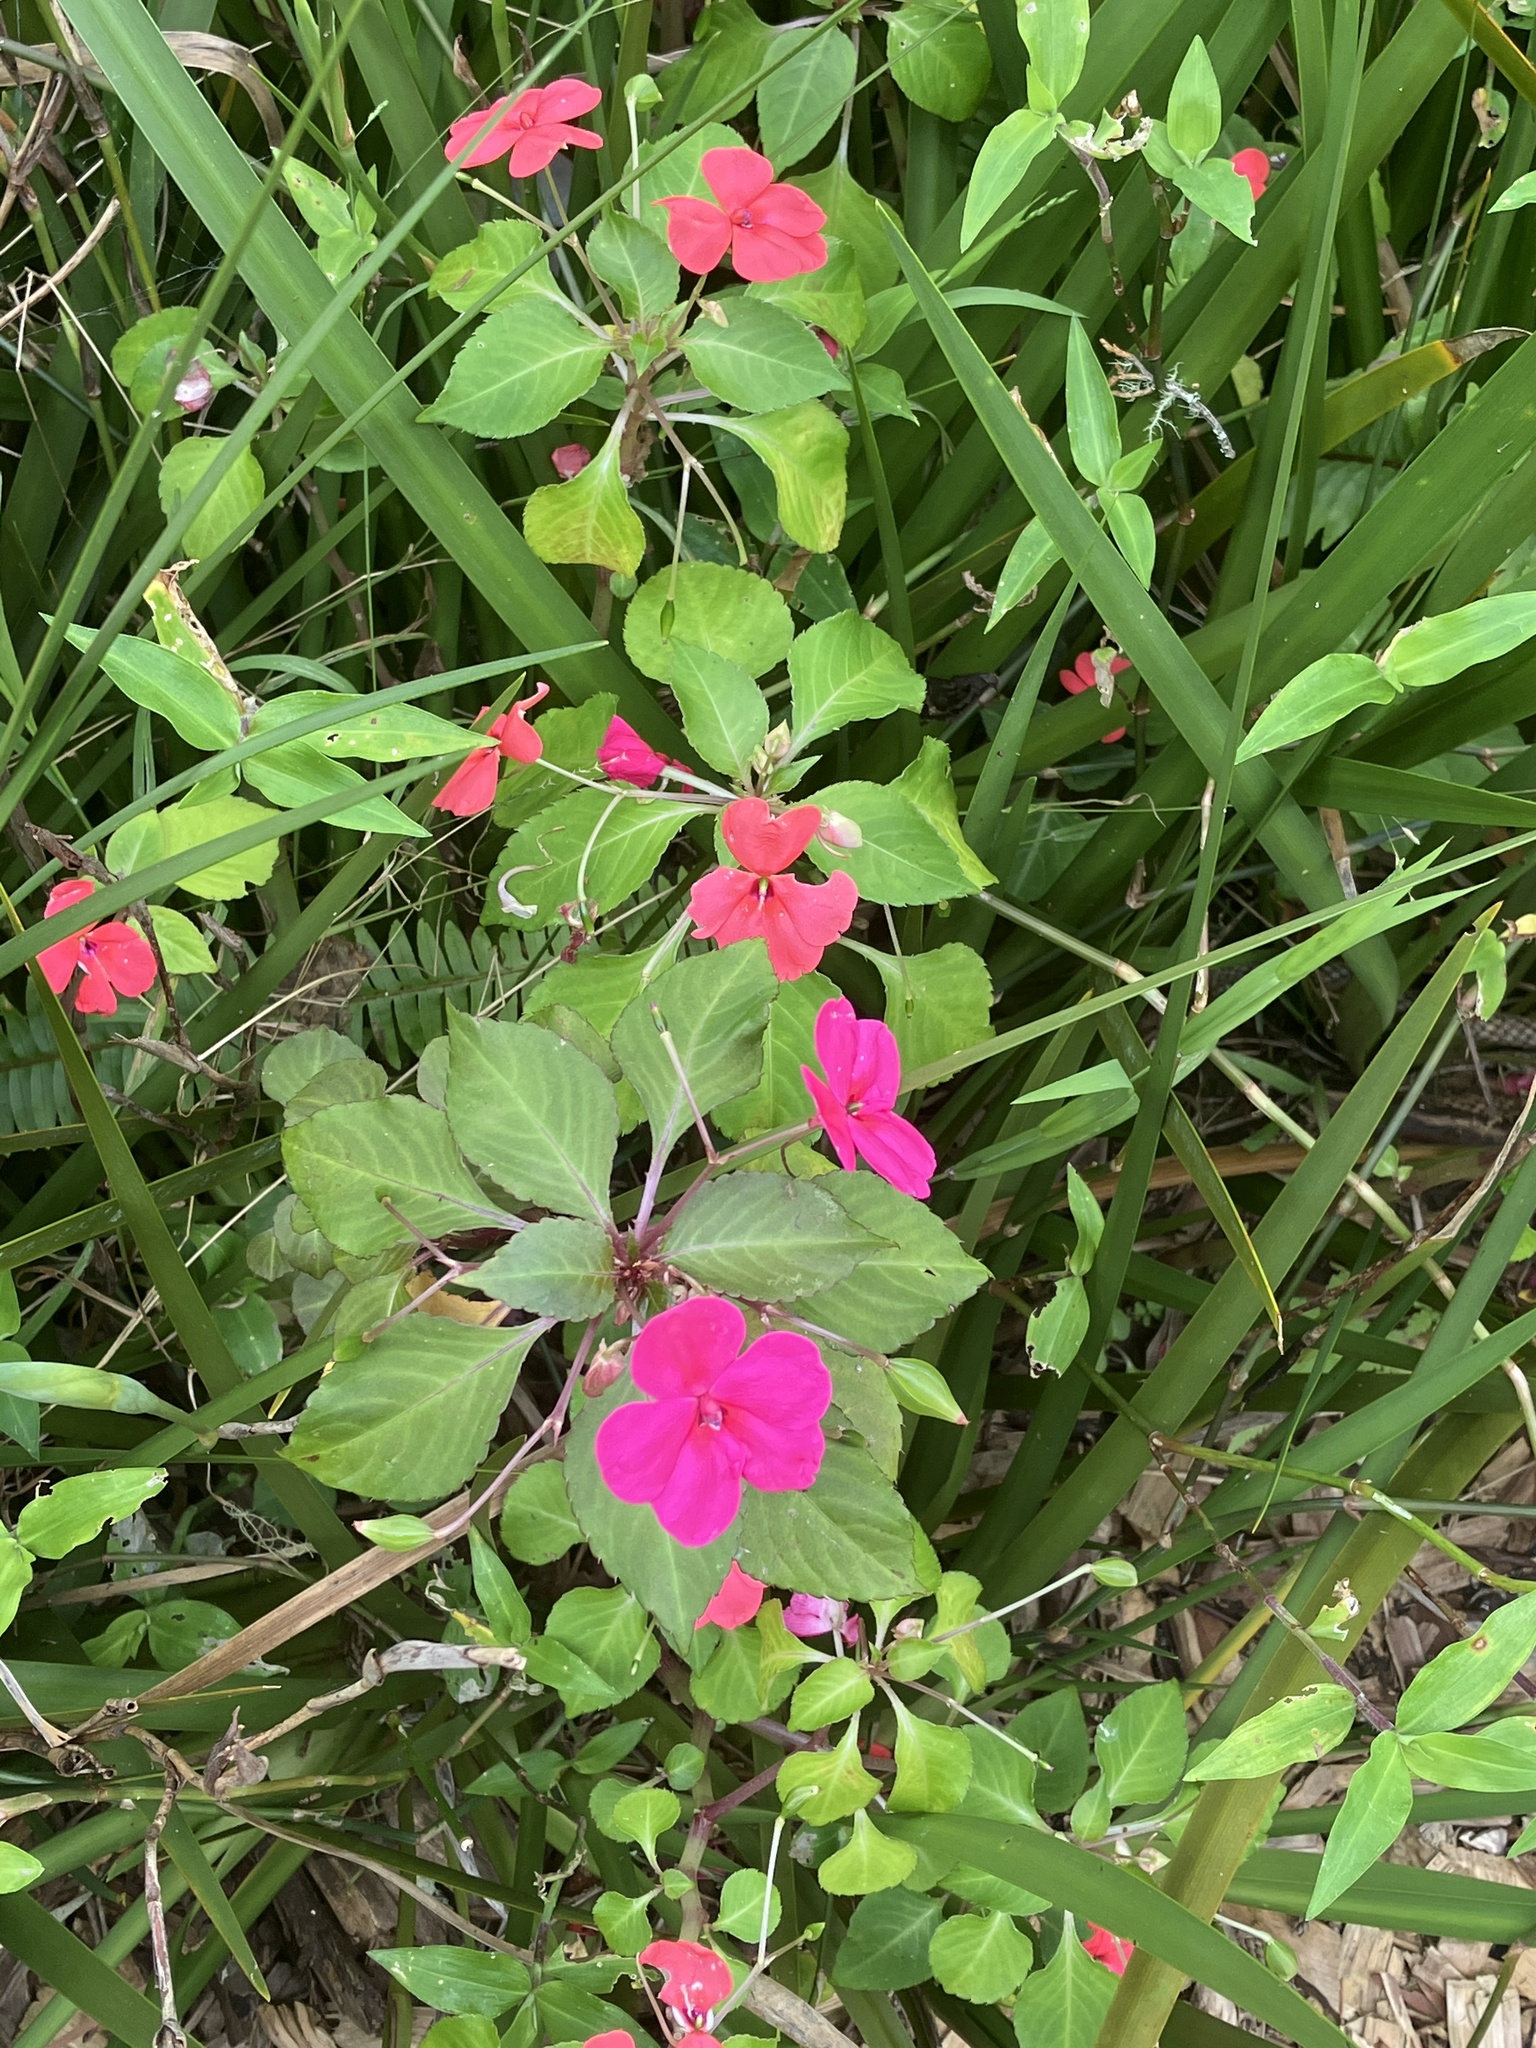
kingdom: Plantae
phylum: Tracheophyta
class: Magnoliopsida
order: Ericales
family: Balsaminaceae
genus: Impatiens
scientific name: Impatiens walleriana
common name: Buzzy lizzy
